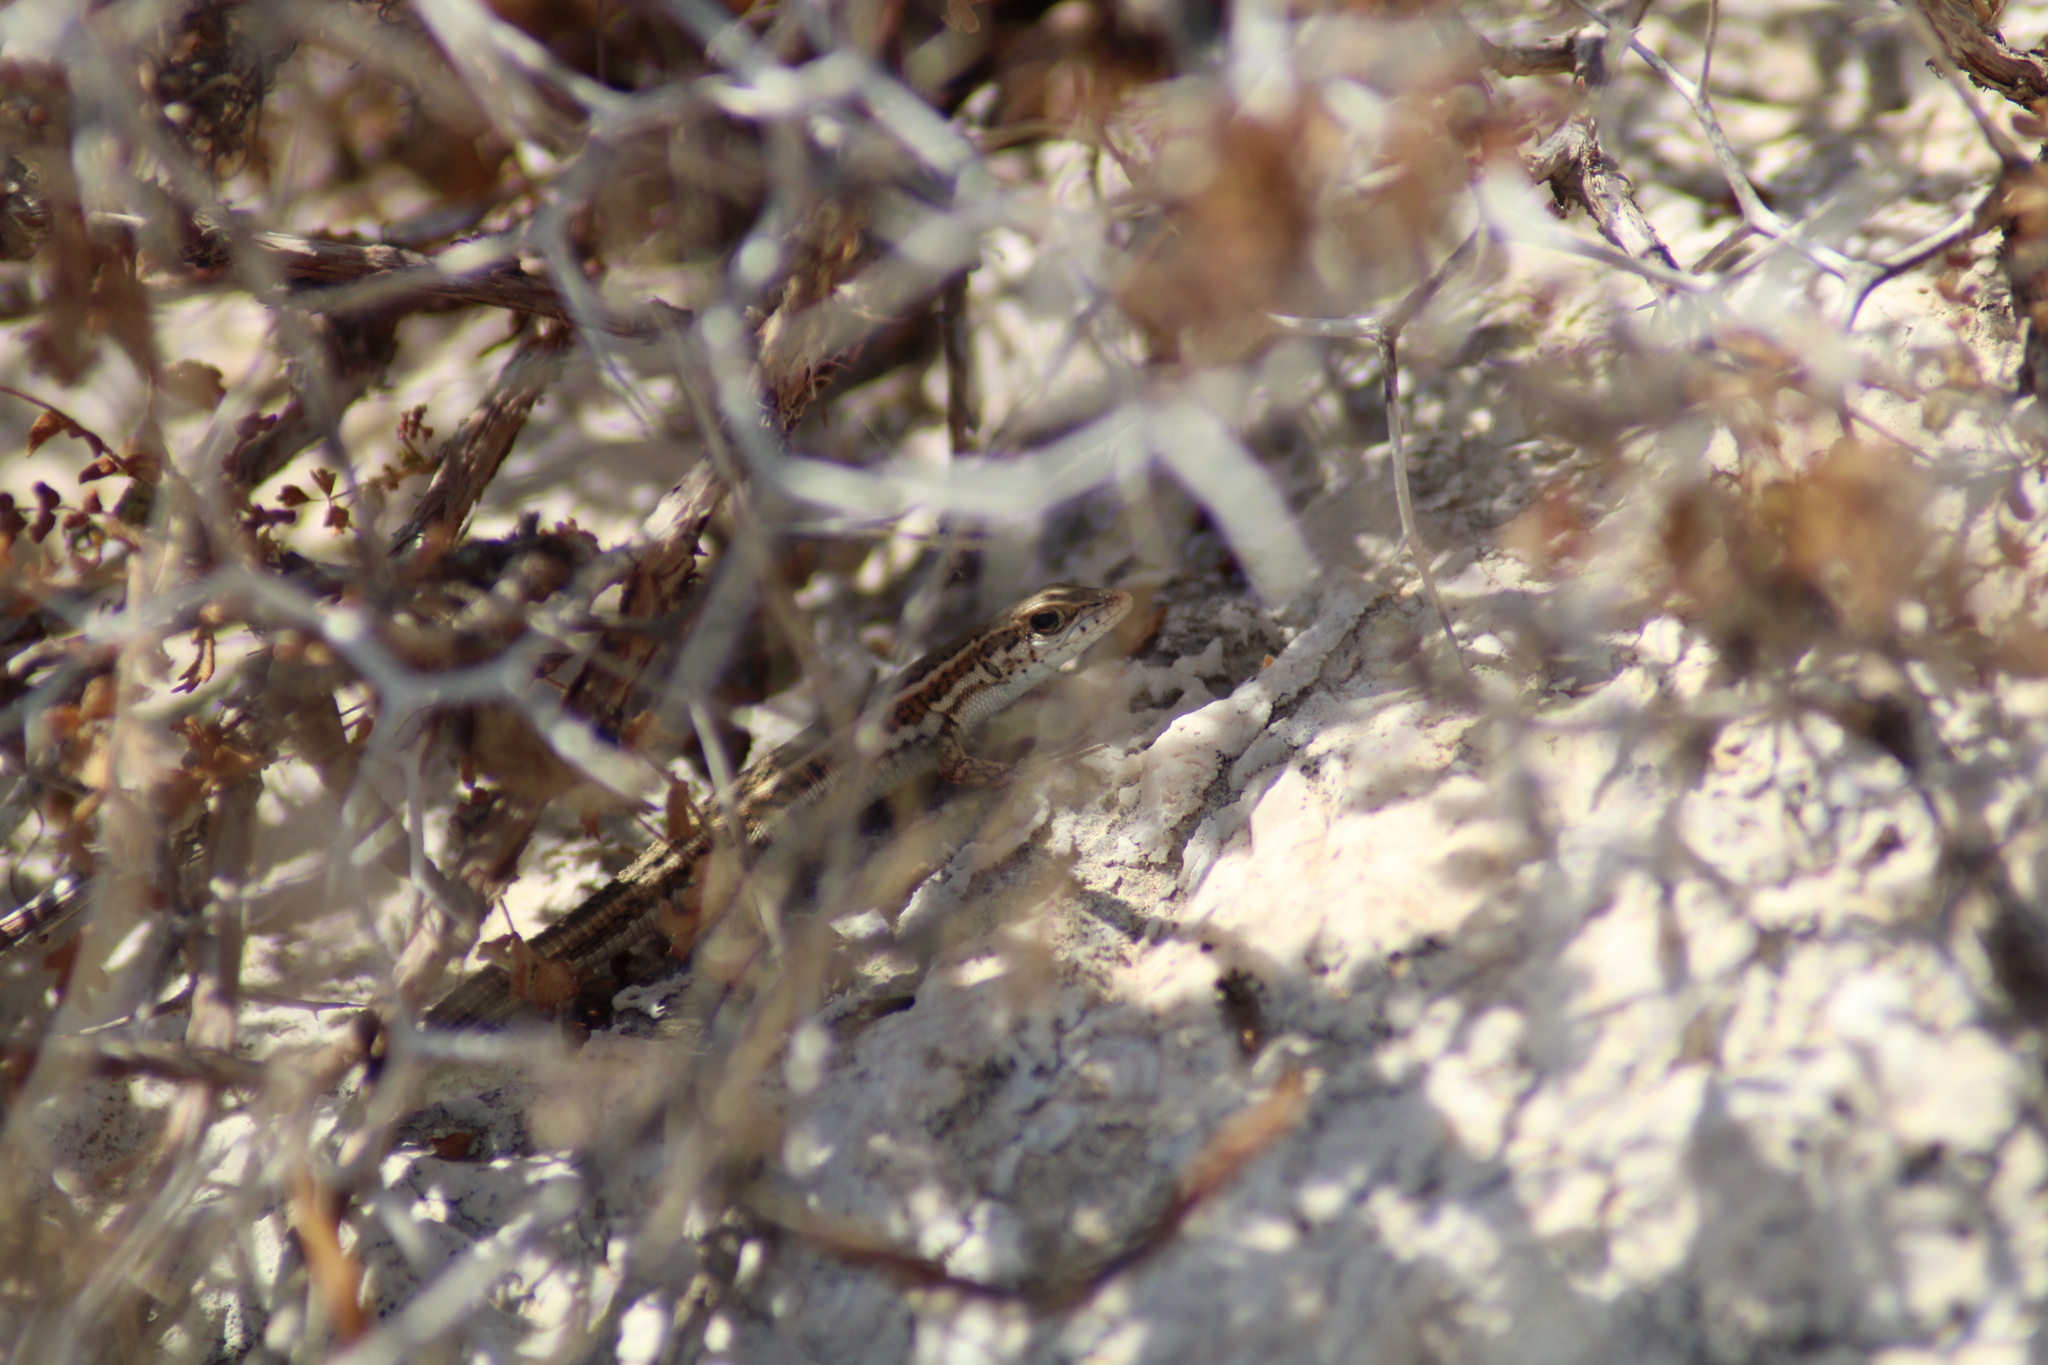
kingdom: Animalia
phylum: Chordata
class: Squamata
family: Lacertidae
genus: Ophisops
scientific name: Ophisops elegans
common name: Snake-eyed lizard
